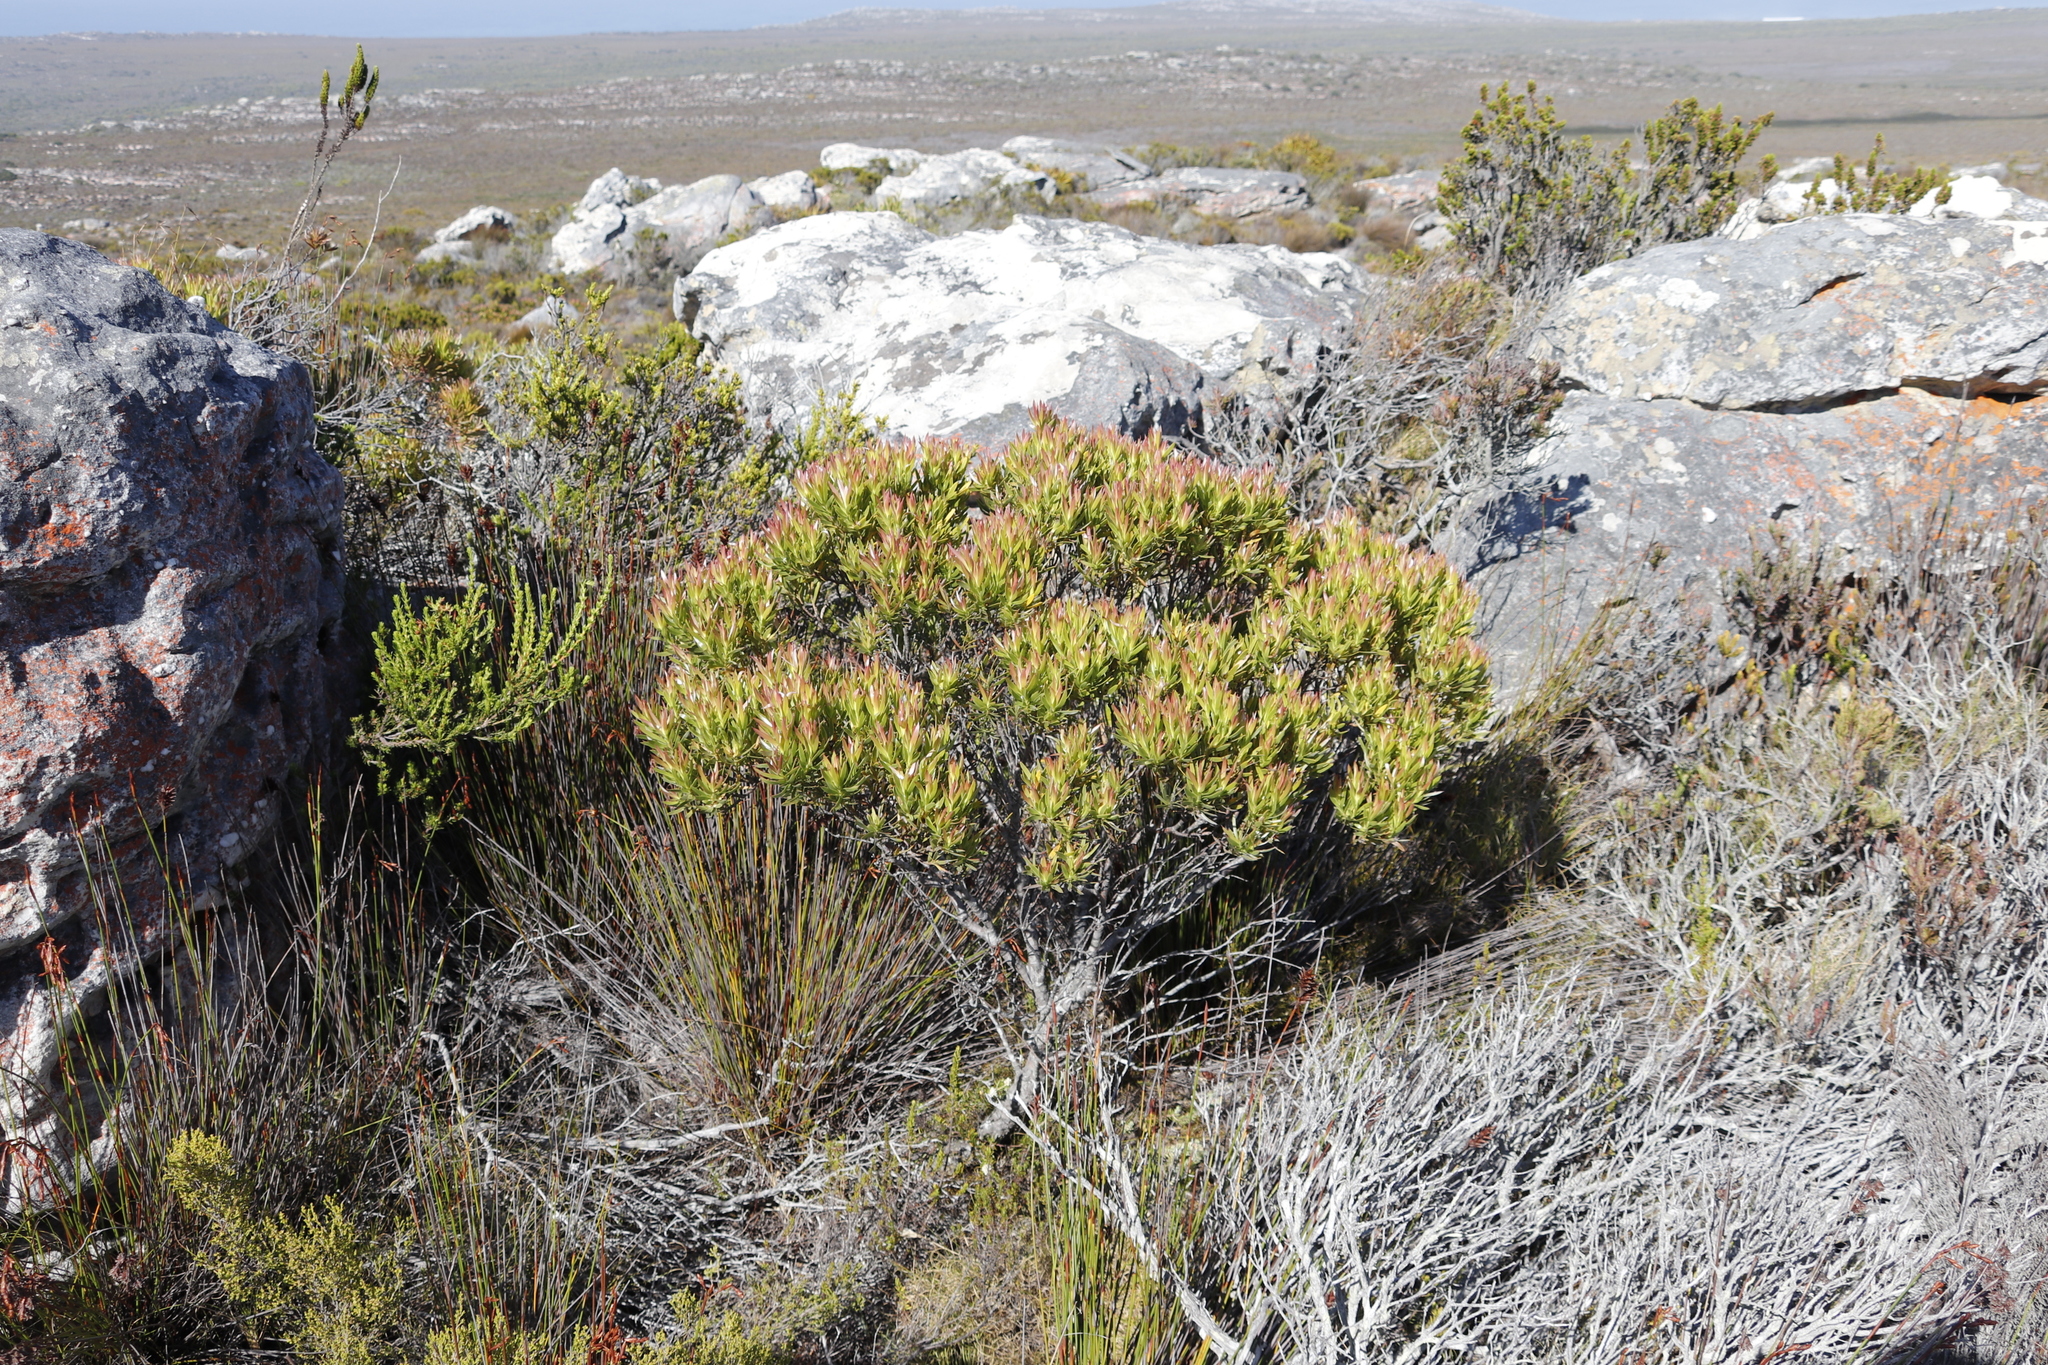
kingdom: Plantae
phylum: Tracheophyta
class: Magnoliopsida
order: Proteales
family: Proteaceae
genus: Leucadendron
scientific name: Leucadendron xanthoconus
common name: Sickle-leaf conebush
